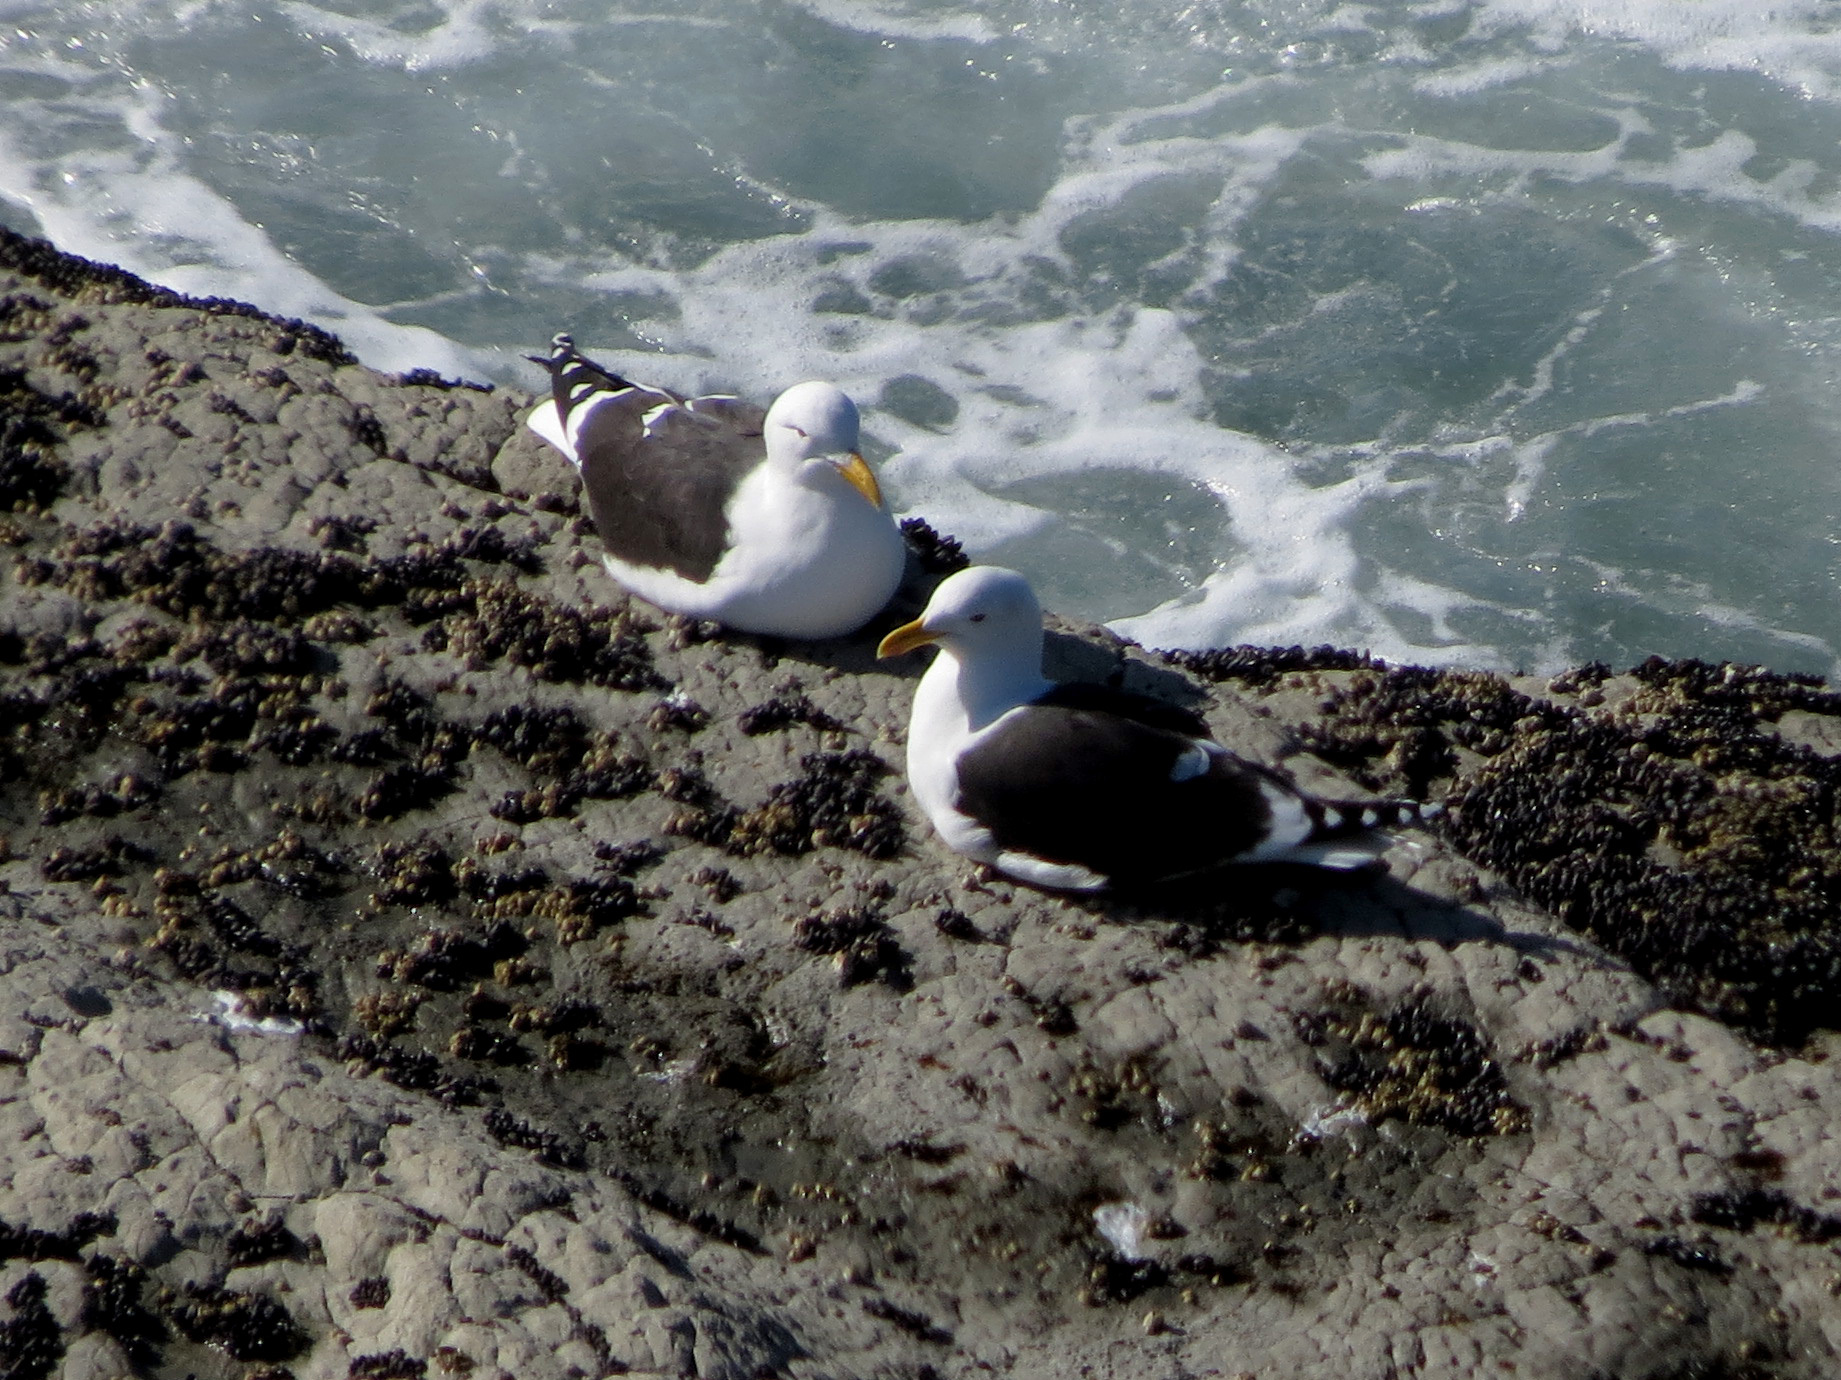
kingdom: Animalia
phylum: Chordata
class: Aves
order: Charadriiformes
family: Laridae
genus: Larus
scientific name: Larus dominicanus
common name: Kelp gull
